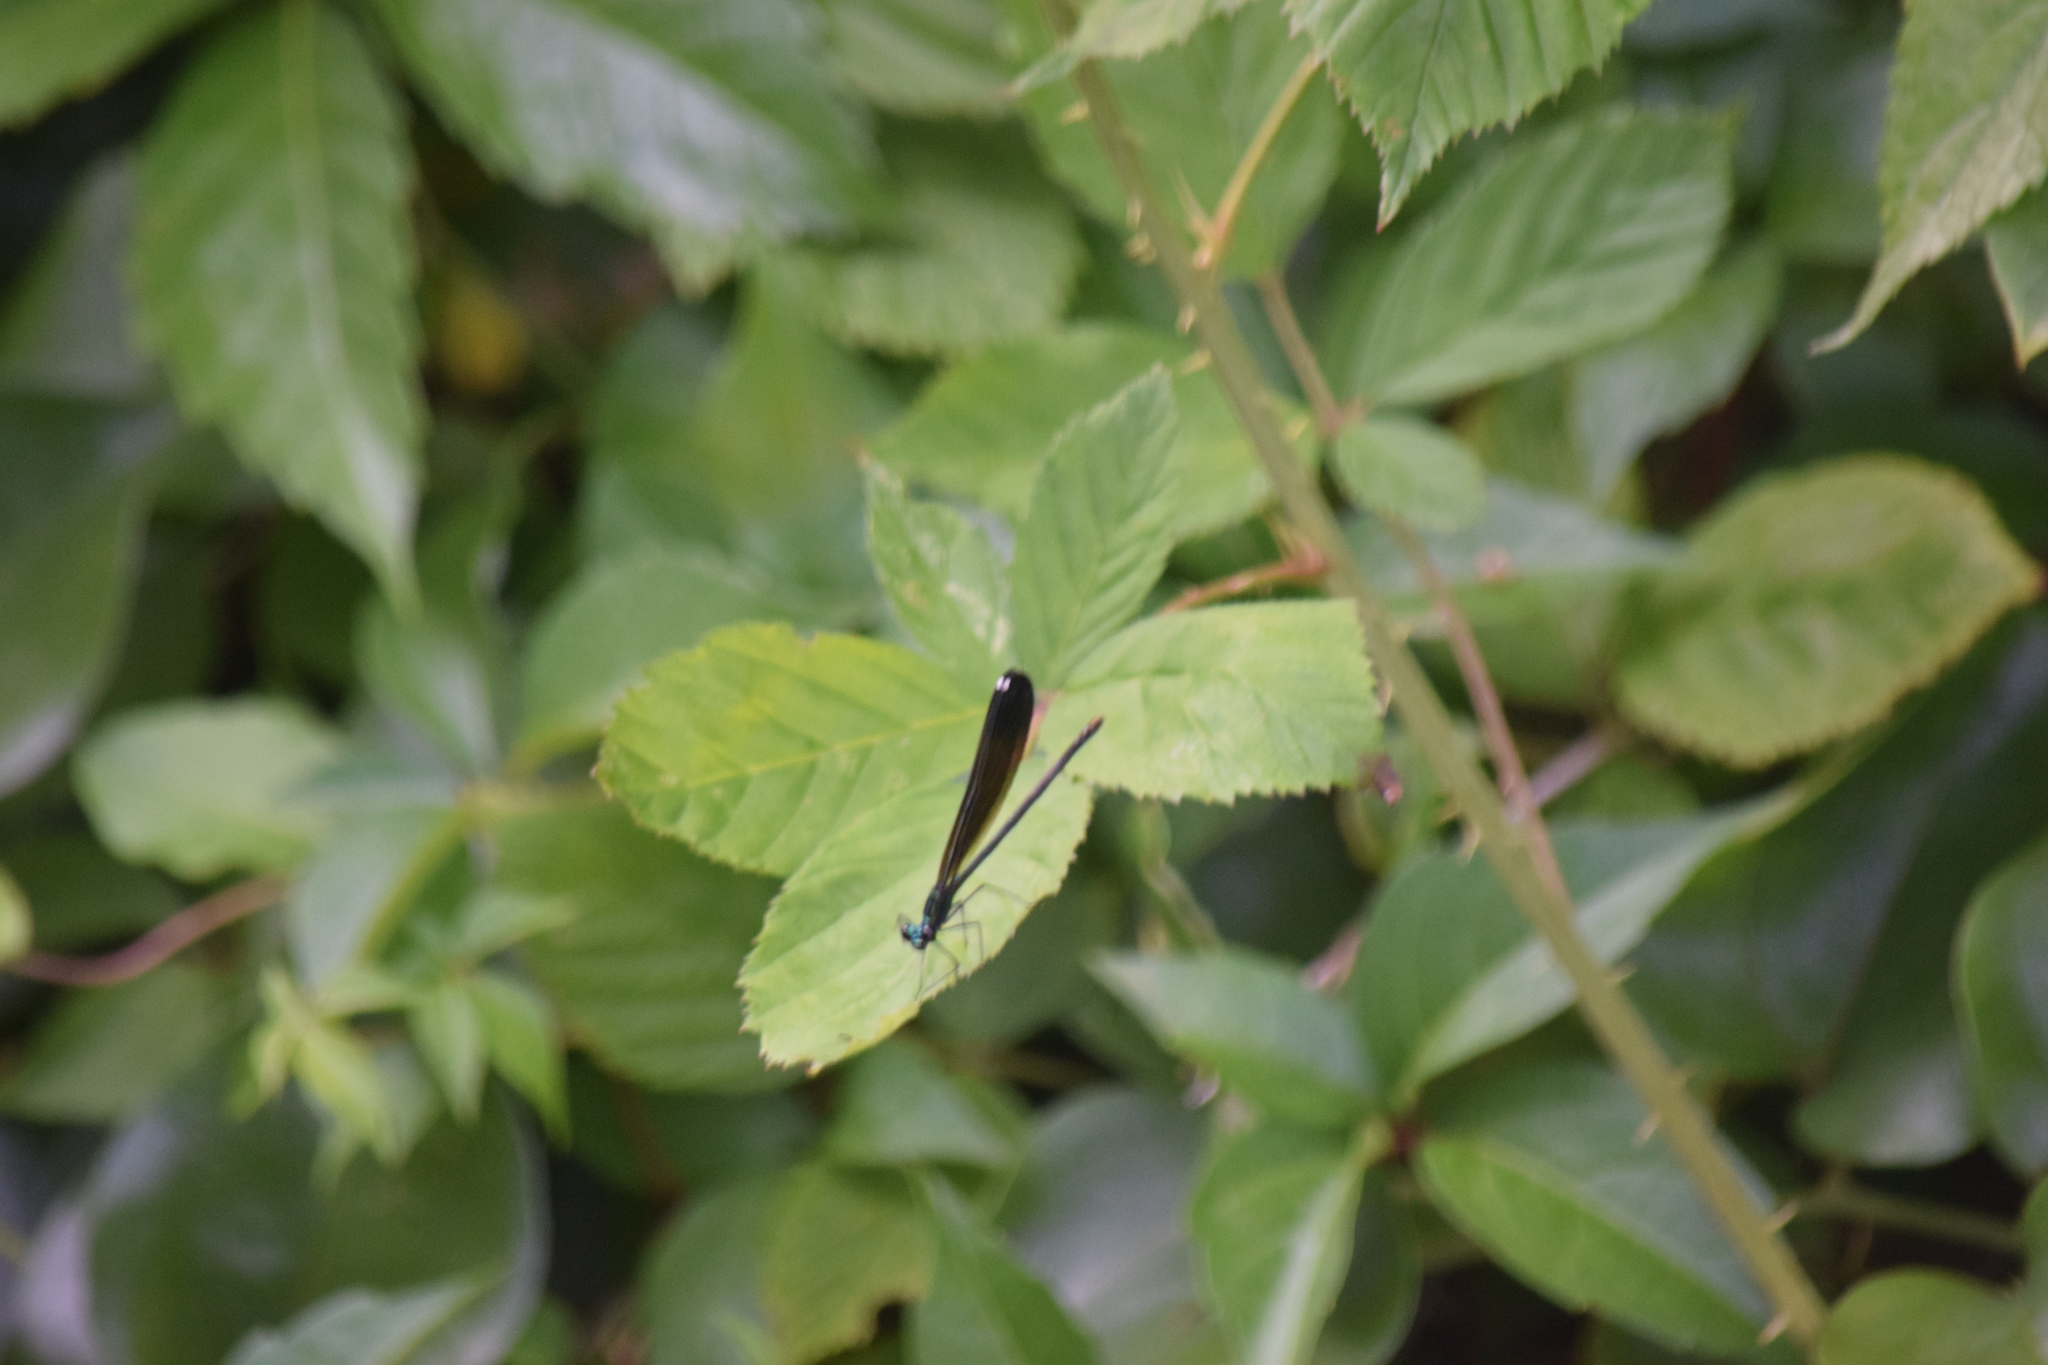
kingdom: Animalia
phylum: Arthropoda
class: Insecta
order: Odonata
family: Calopterygidae
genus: Calopteryx
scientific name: Calopteryx maculata
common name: Ebony jewelwing
